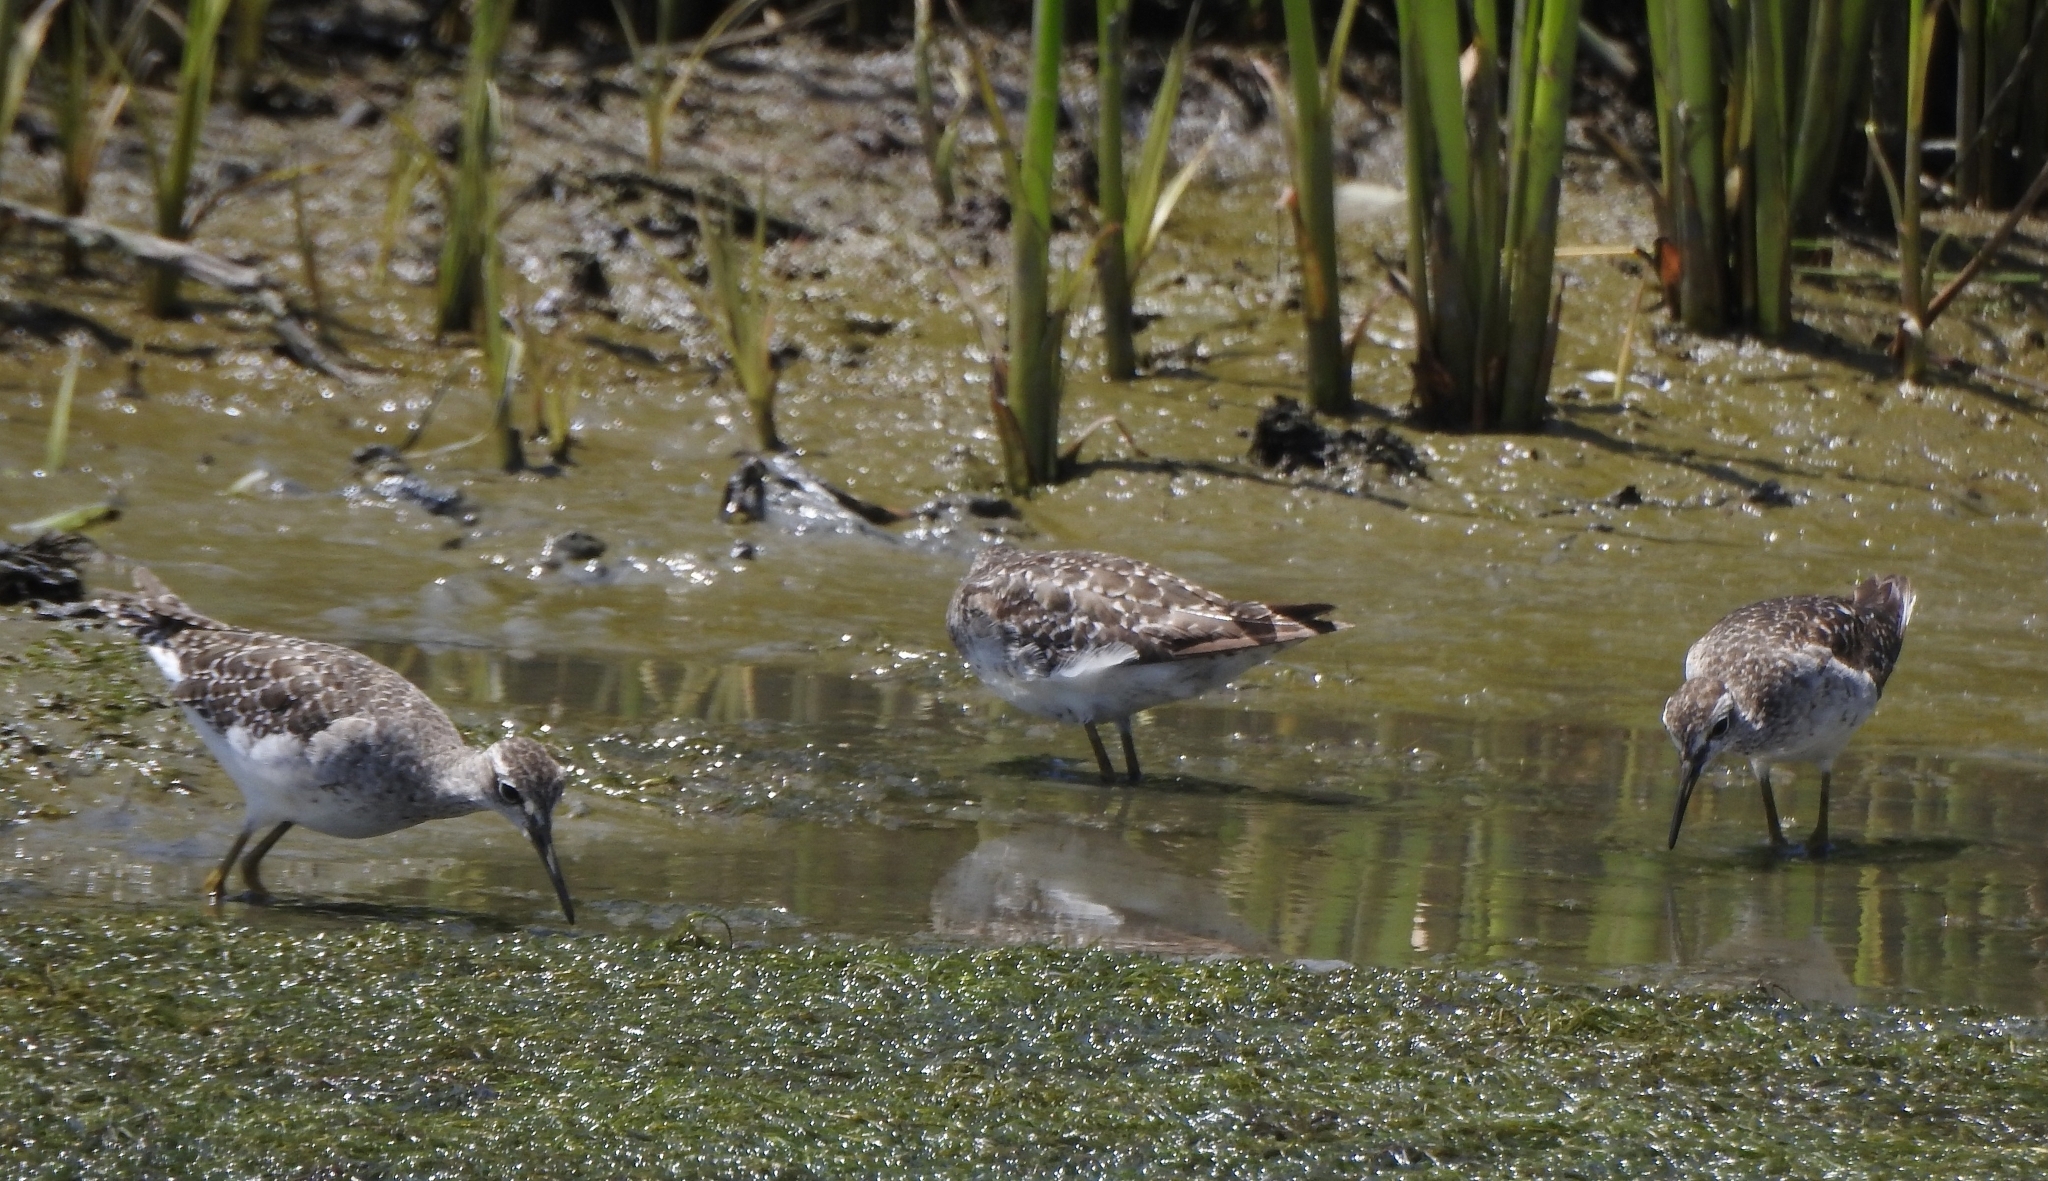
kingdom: Animalia
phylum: Chordata
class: Aves
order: Charadriiformes
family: Scolopacidae
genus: Tringa
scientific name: Tringa glareola
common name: Wood sandpiper
